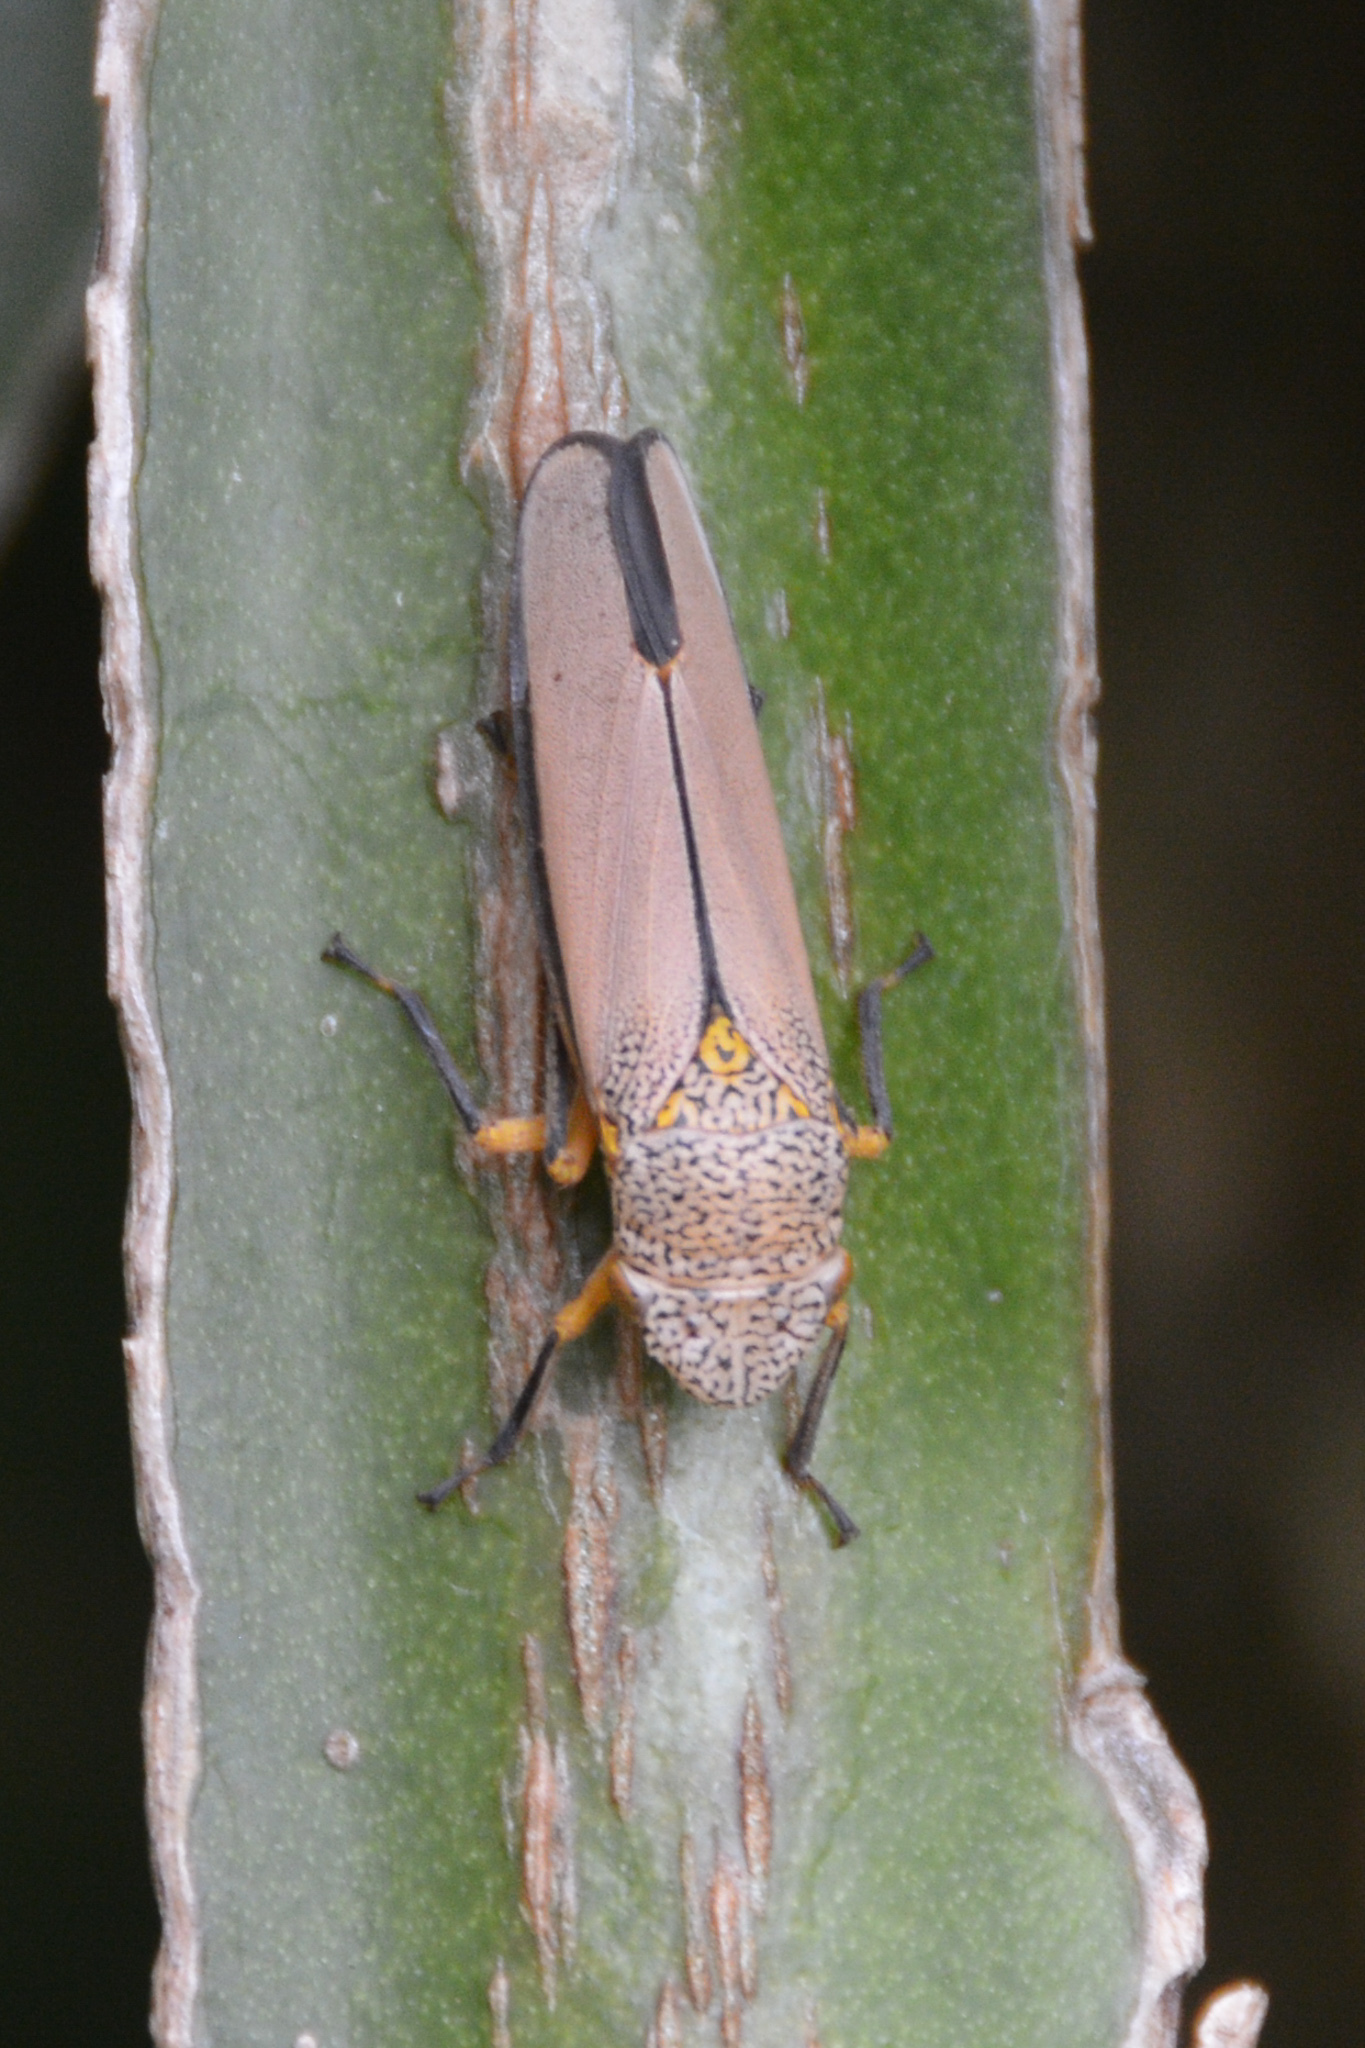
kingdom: Animalia
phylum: Arthropoda
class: Insecta
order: Hemiptera
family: Cicadellidae
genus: Cyrtodisca
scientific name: Cyrtodisca major
